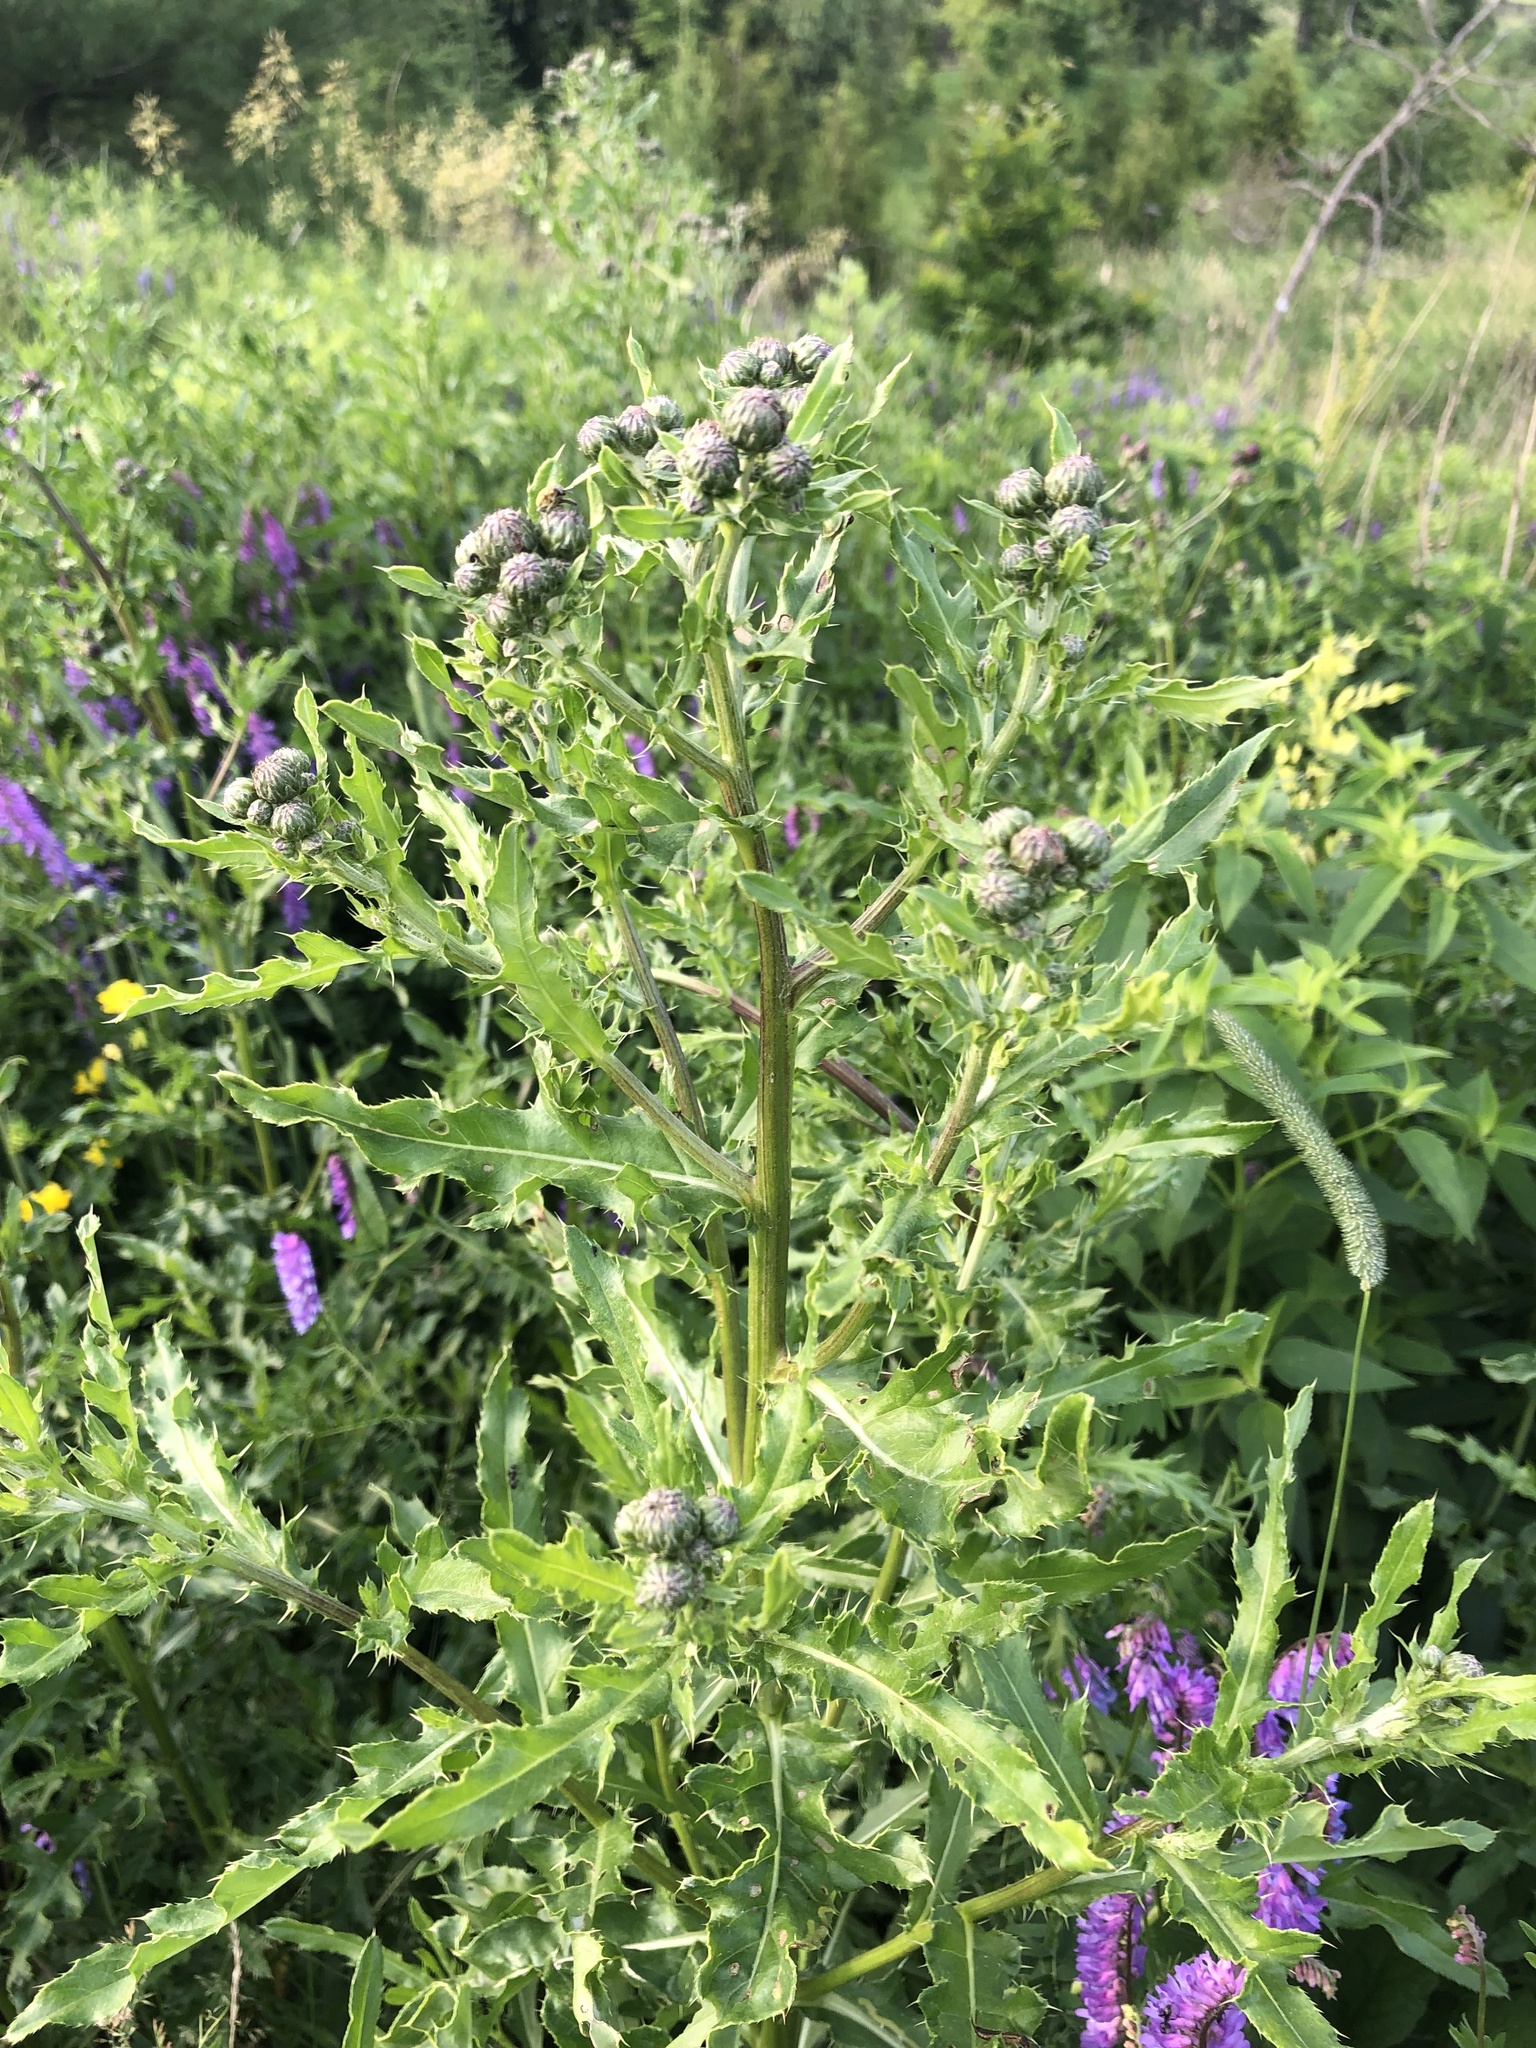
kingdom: Plantae
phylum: Tracheophyta
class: Magnoliopsida
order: Asterales
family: Asteraceae
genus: Cirsium
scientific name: Cirsium arvense
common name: Creeping thistle
